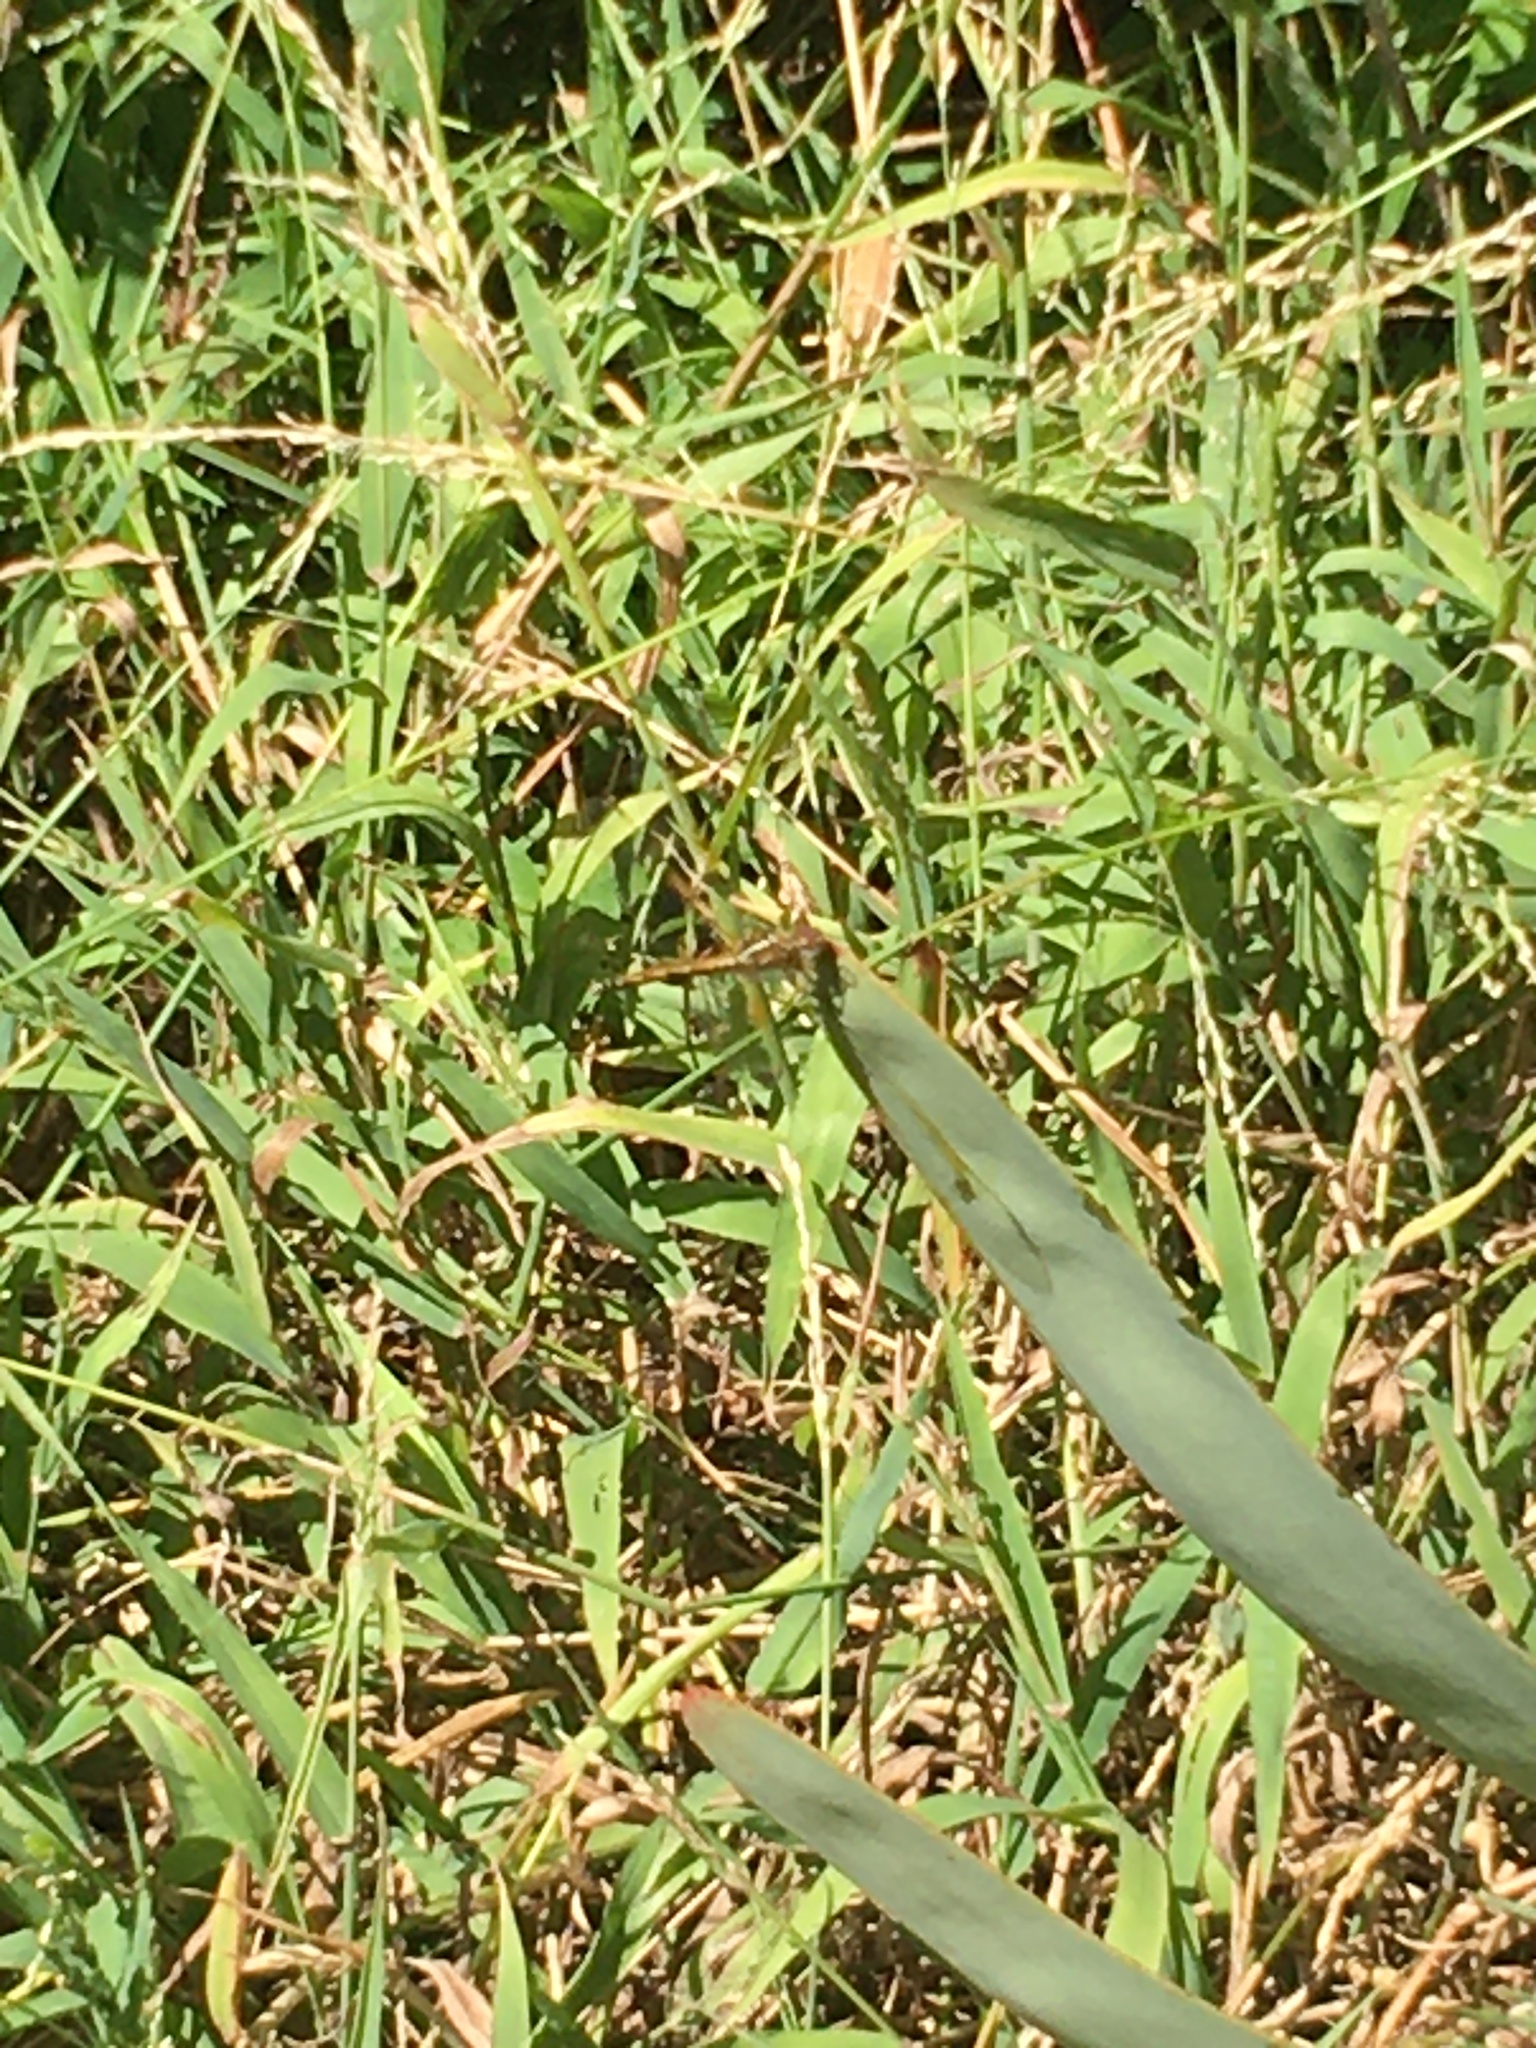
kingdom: Animalia
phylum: Arthropoda
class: Insecta
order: Odonata
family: Libellulidae
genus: Trithemis
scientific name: Trithemis arteriosa
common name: Red-veined dropwing
